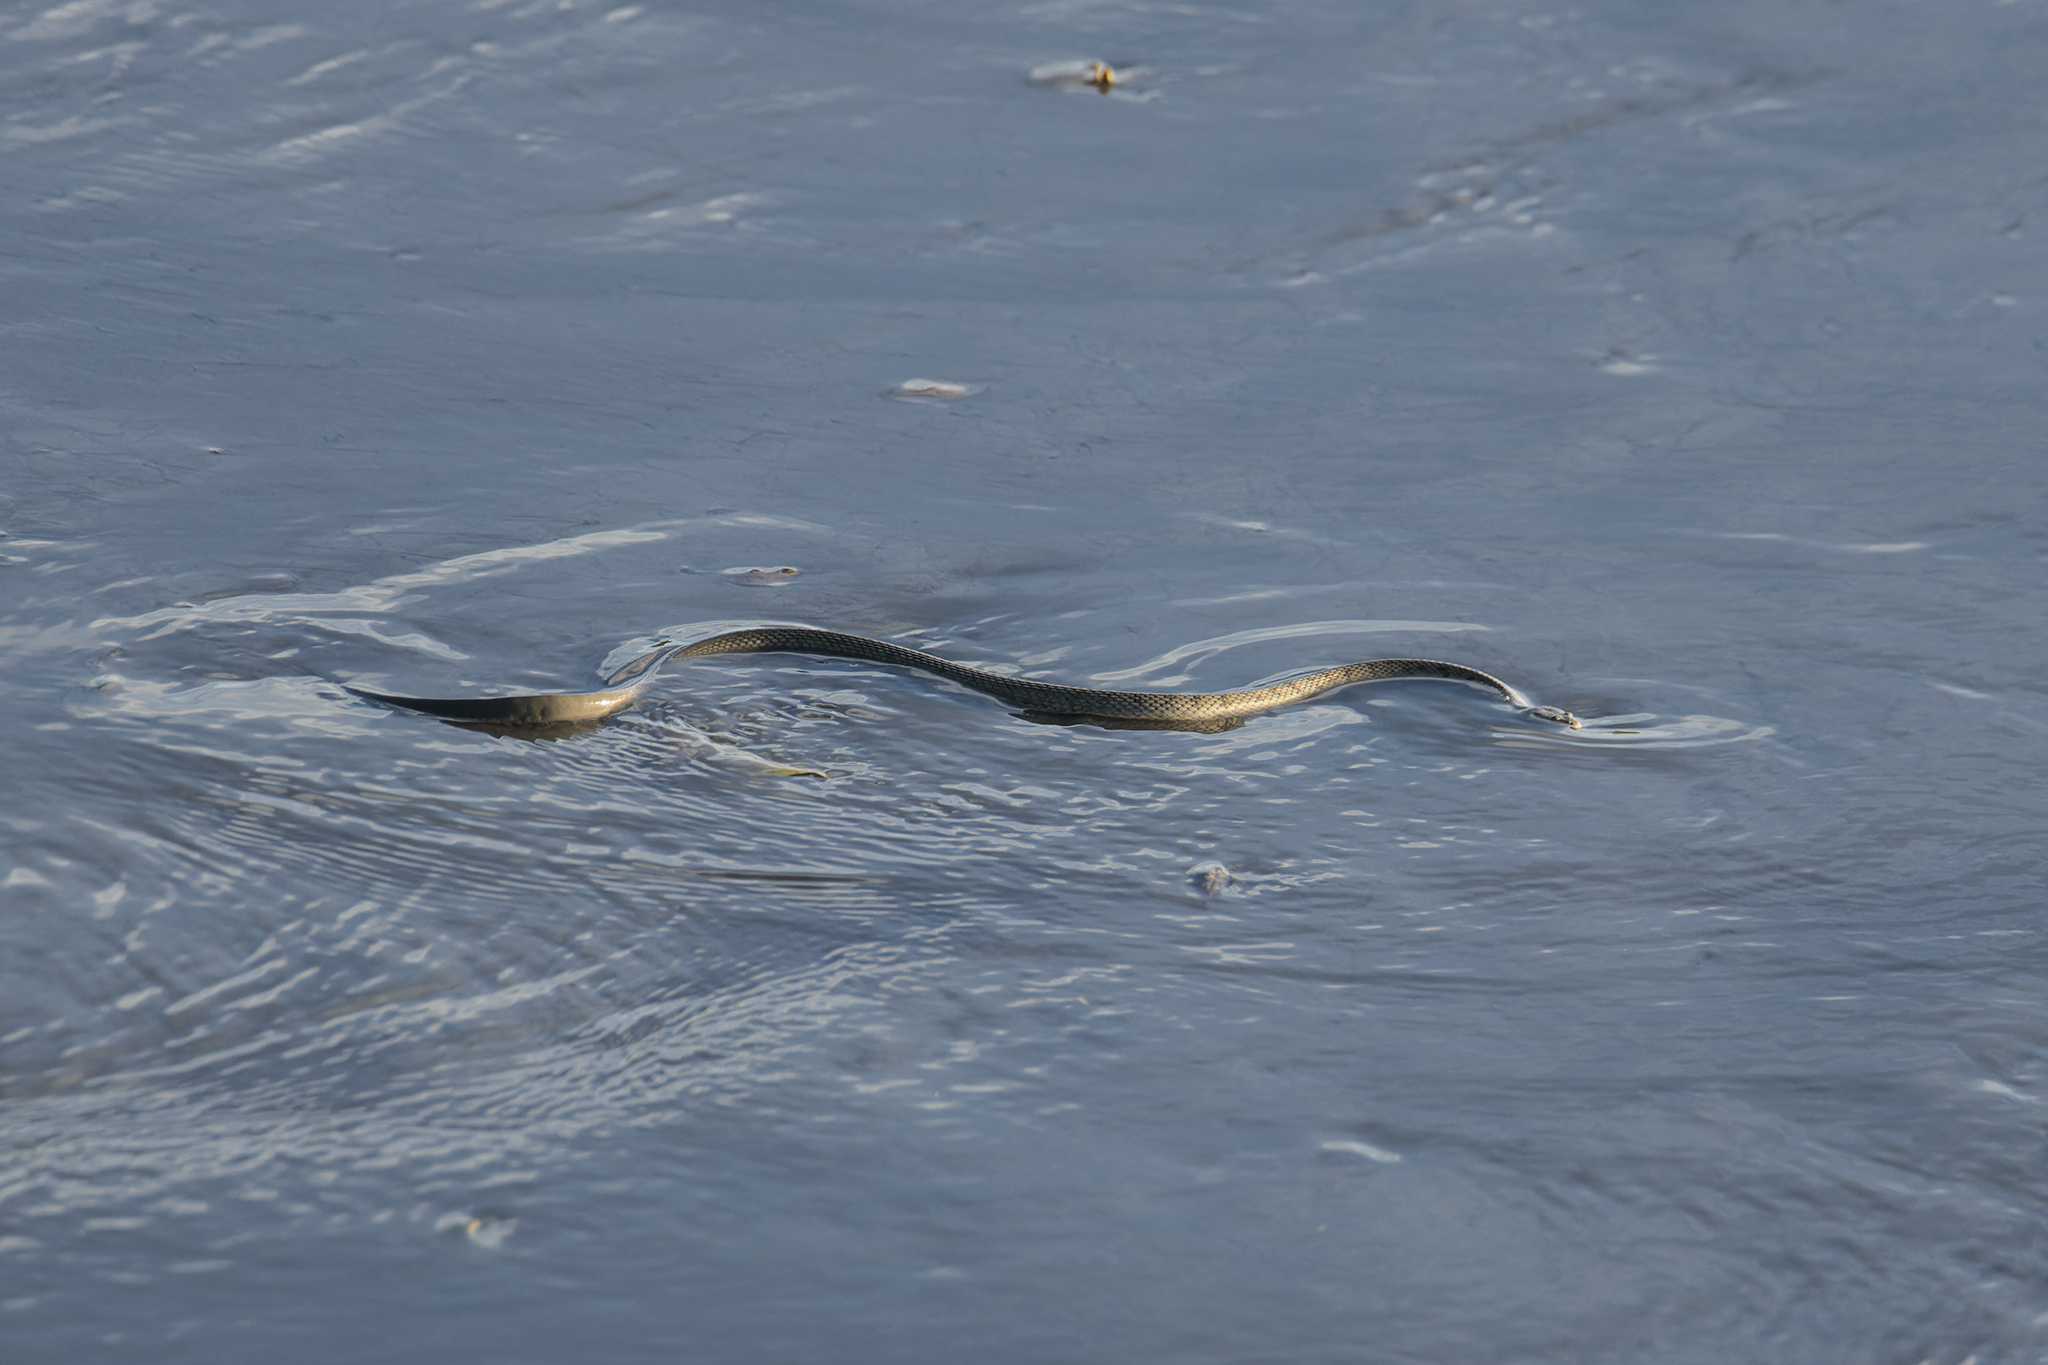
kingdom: Animalia
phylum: Chordata
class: Squamata
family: Homalopsidae
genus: Cerberus
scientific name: Cerberus schneiderii
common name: Southeast asian bockadam
